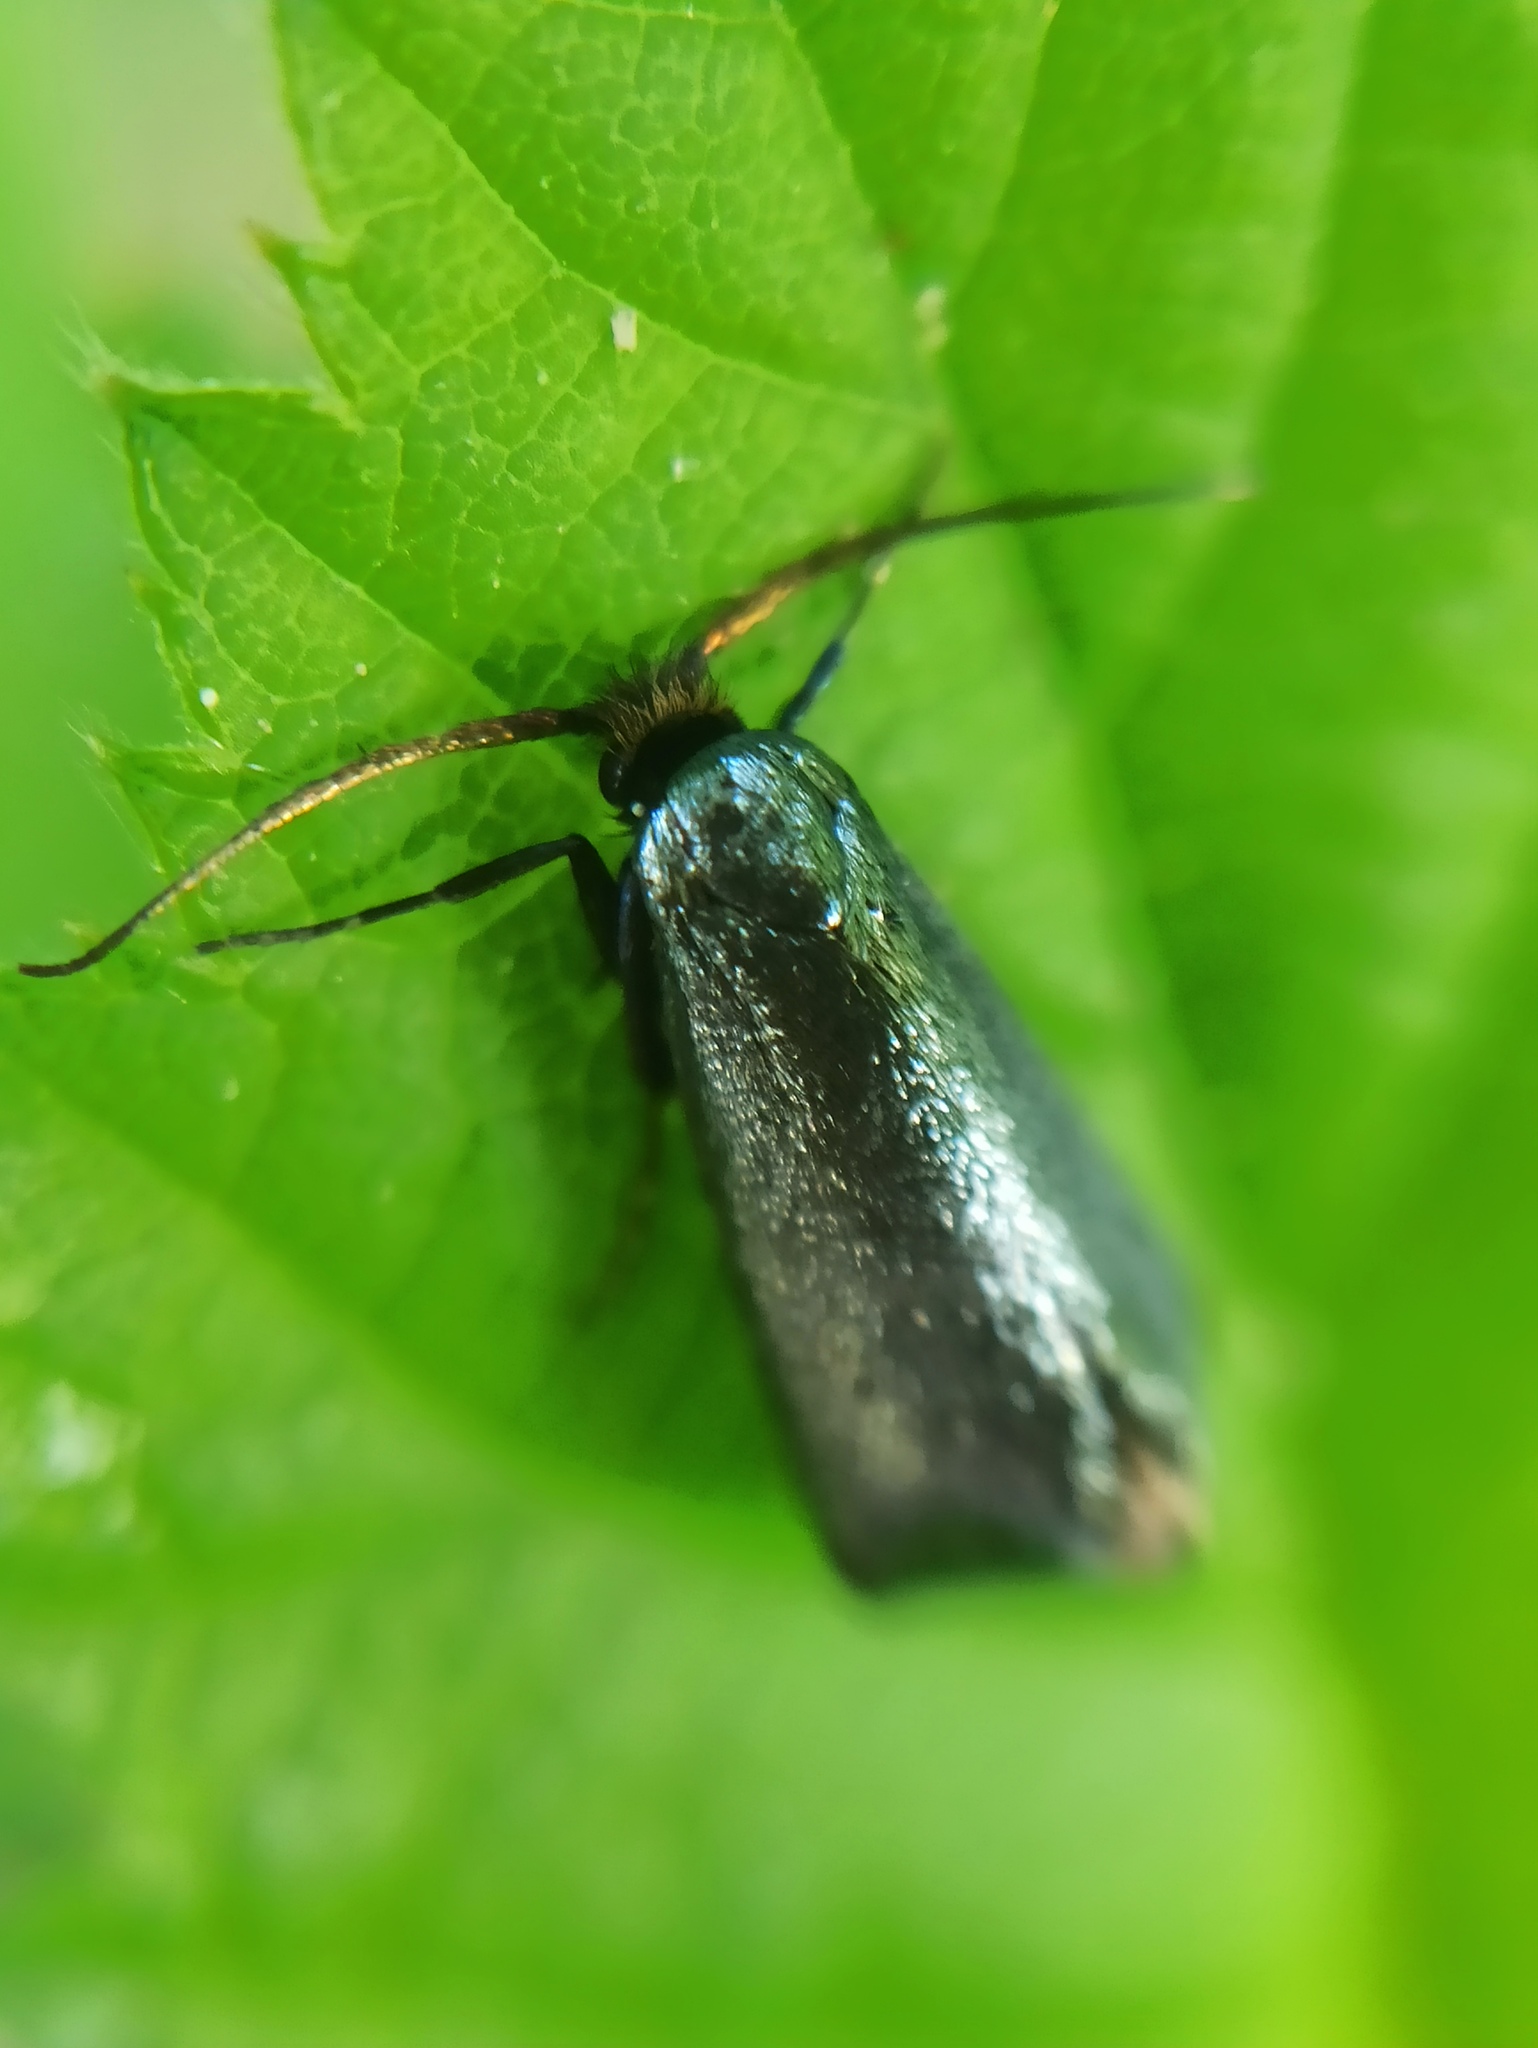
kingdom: Animalia
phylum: Arthropoda
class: Insecta
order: Lepidoptera
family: Adelidae
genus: Adela
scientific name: Adela viridella
